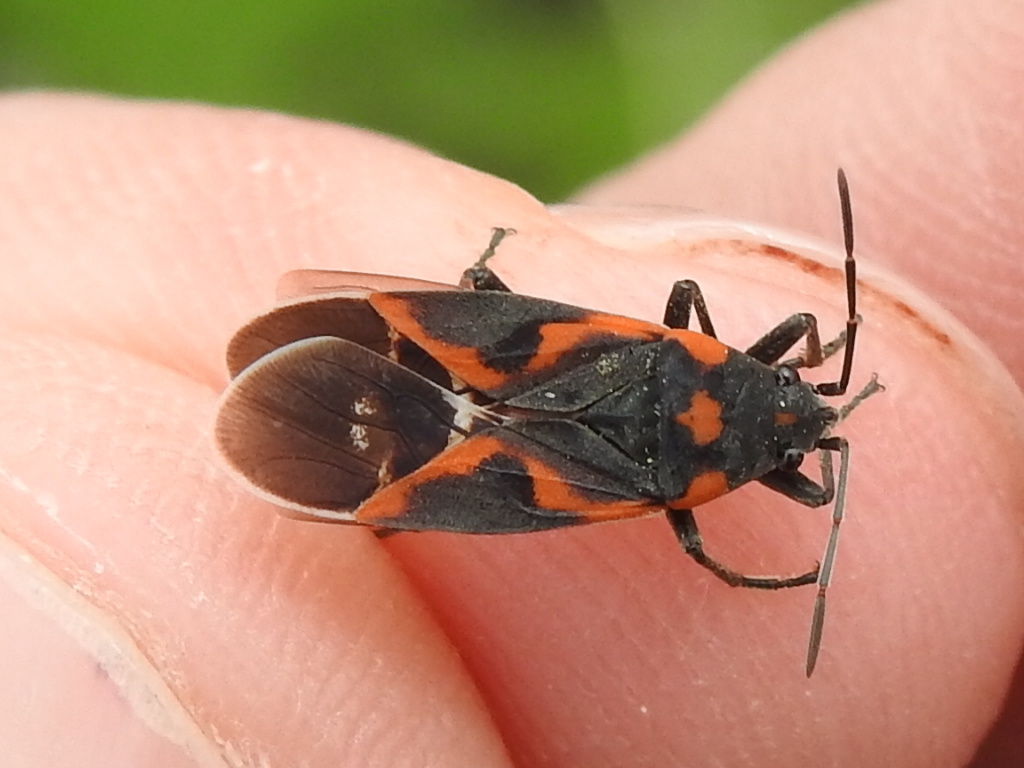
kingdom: Animalia
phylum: Arthropoda
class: Insecta
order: Hemiptera
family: Lygaeidae
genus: Lygaeus
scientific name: Lygaeus kalmii
